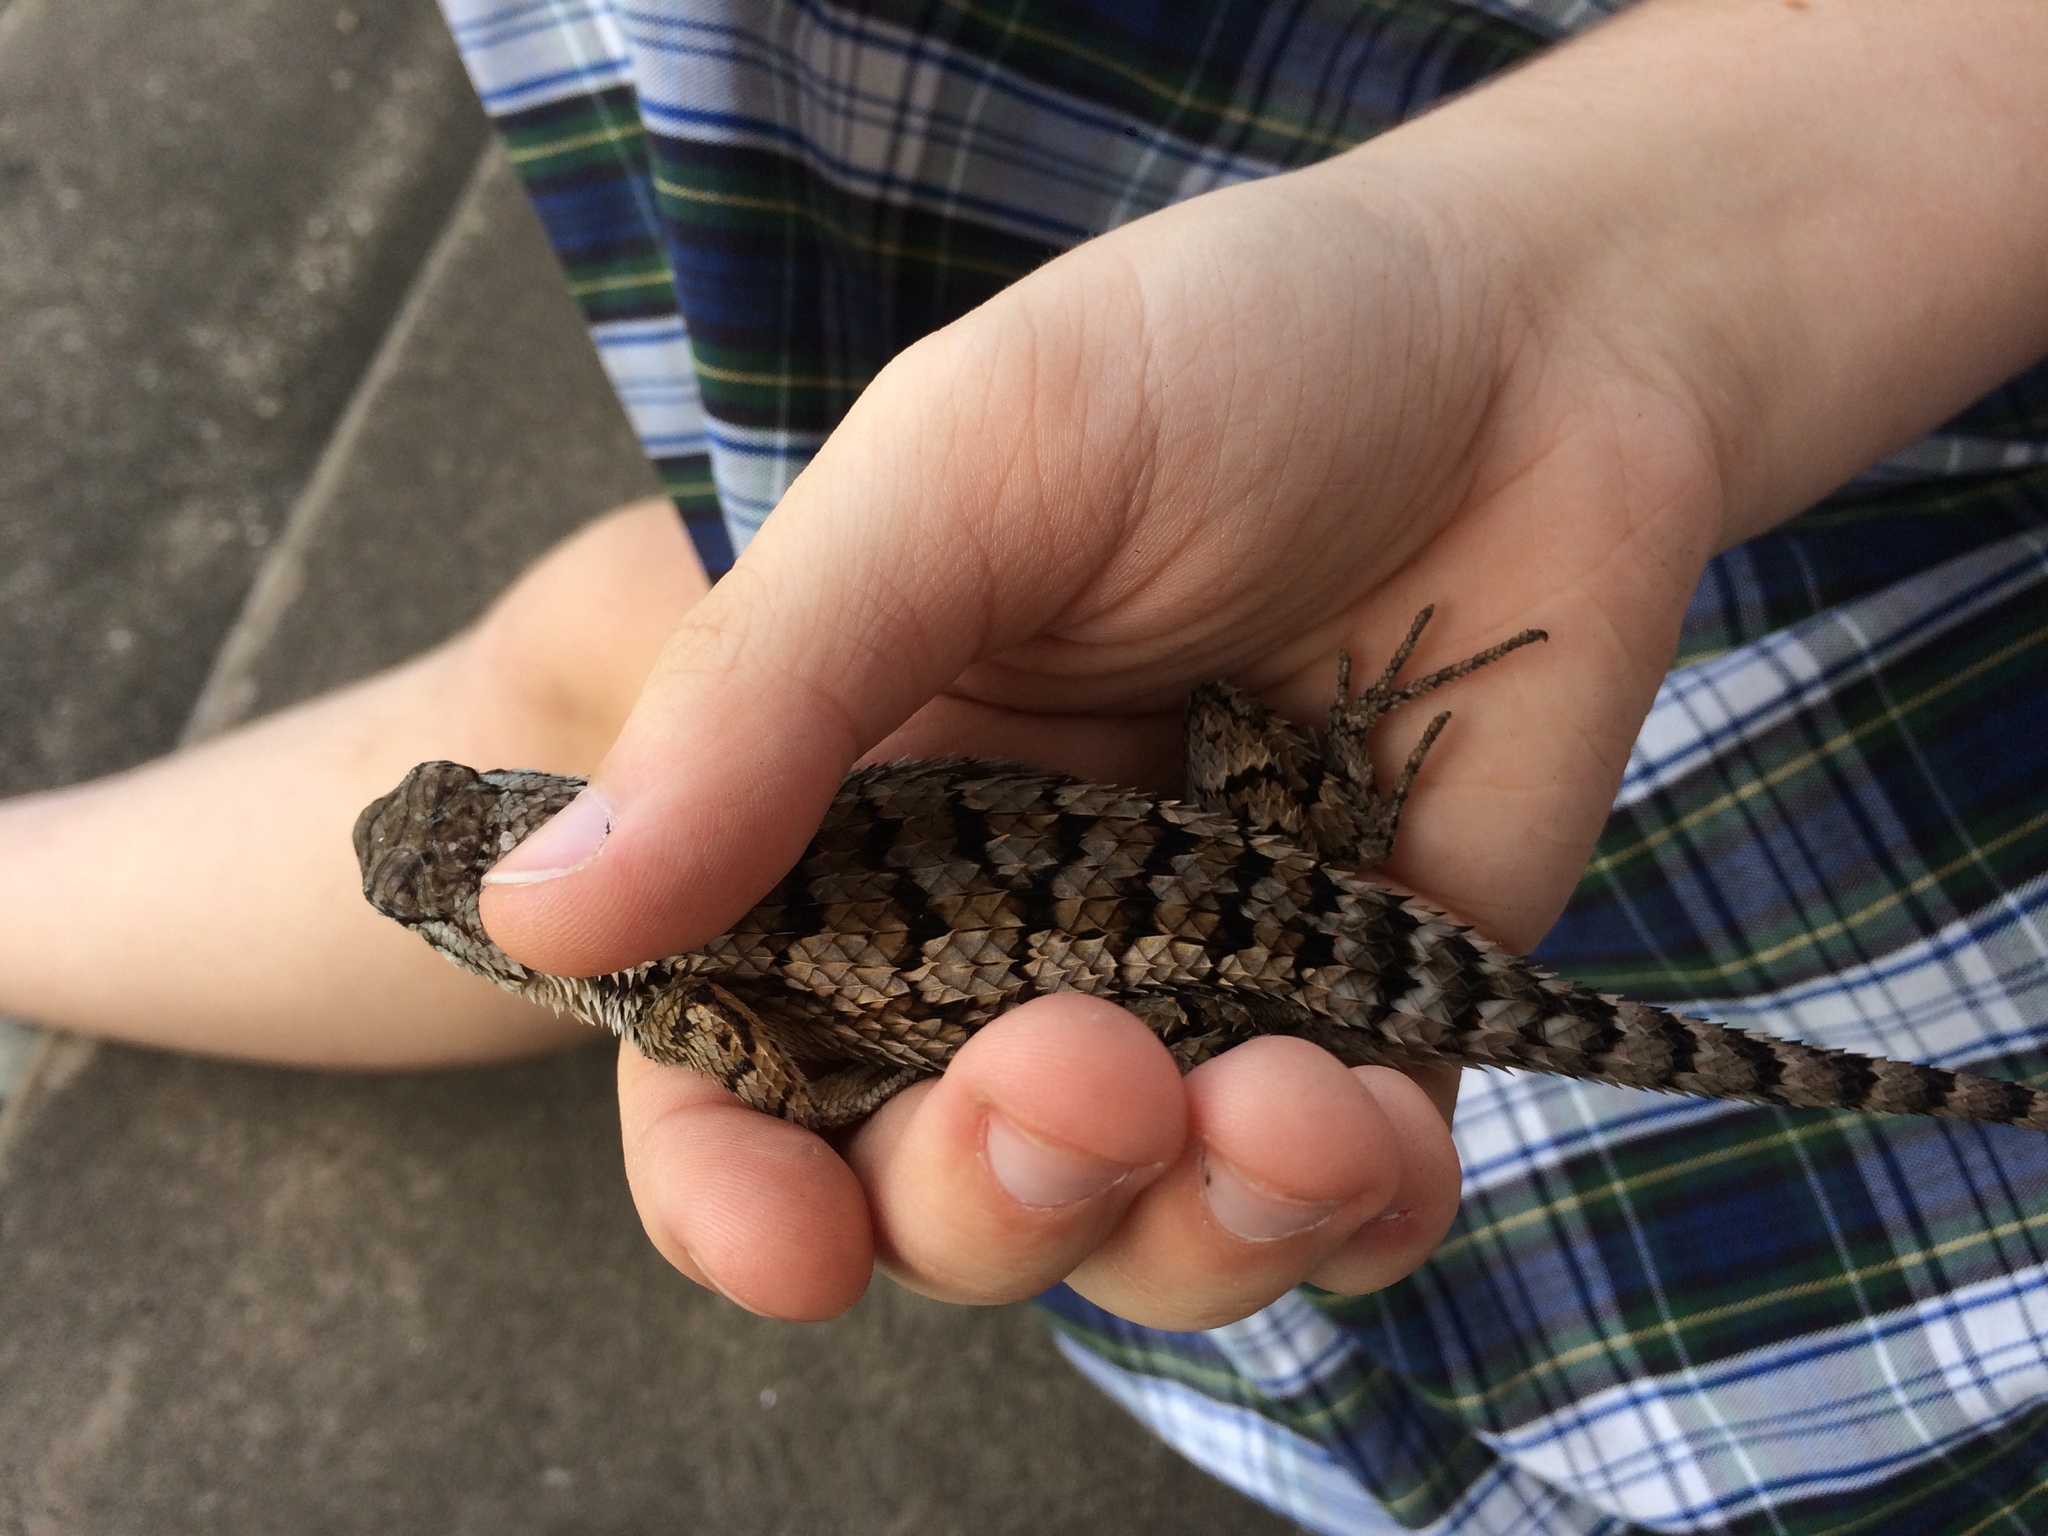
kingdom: Animalia
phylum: Chordata
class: Squamata
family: Phrynosomatidae
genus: Sceloporus
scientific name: Sceloporus olivaceus
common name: Texas spiny lizard
